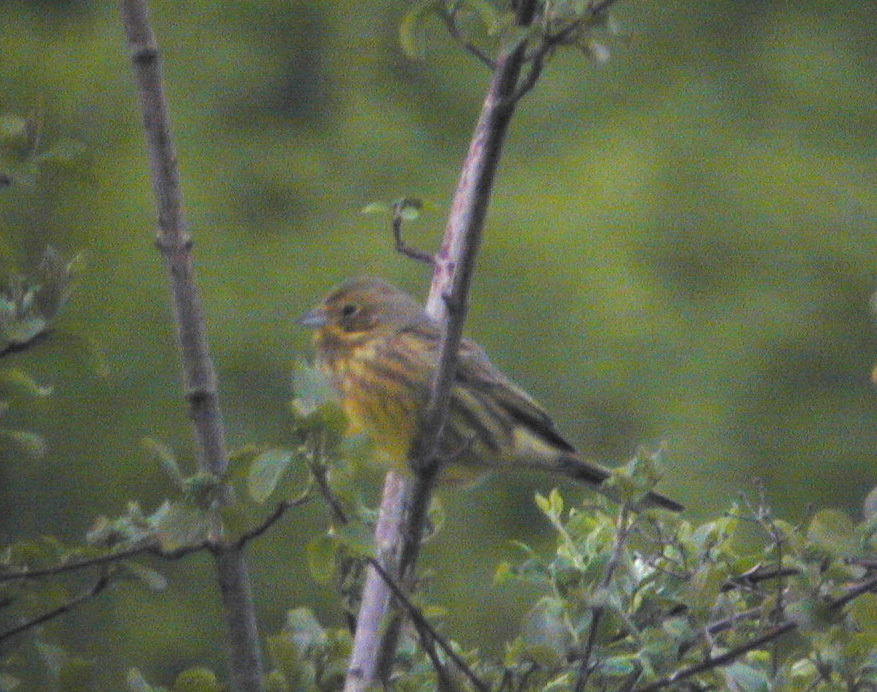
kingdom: Animalia
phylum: Chordata
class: Aves
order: Passeriformes
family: Emberizidae
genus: Emberiza
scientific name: Emberiza citrinella
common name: Yellowhammer
